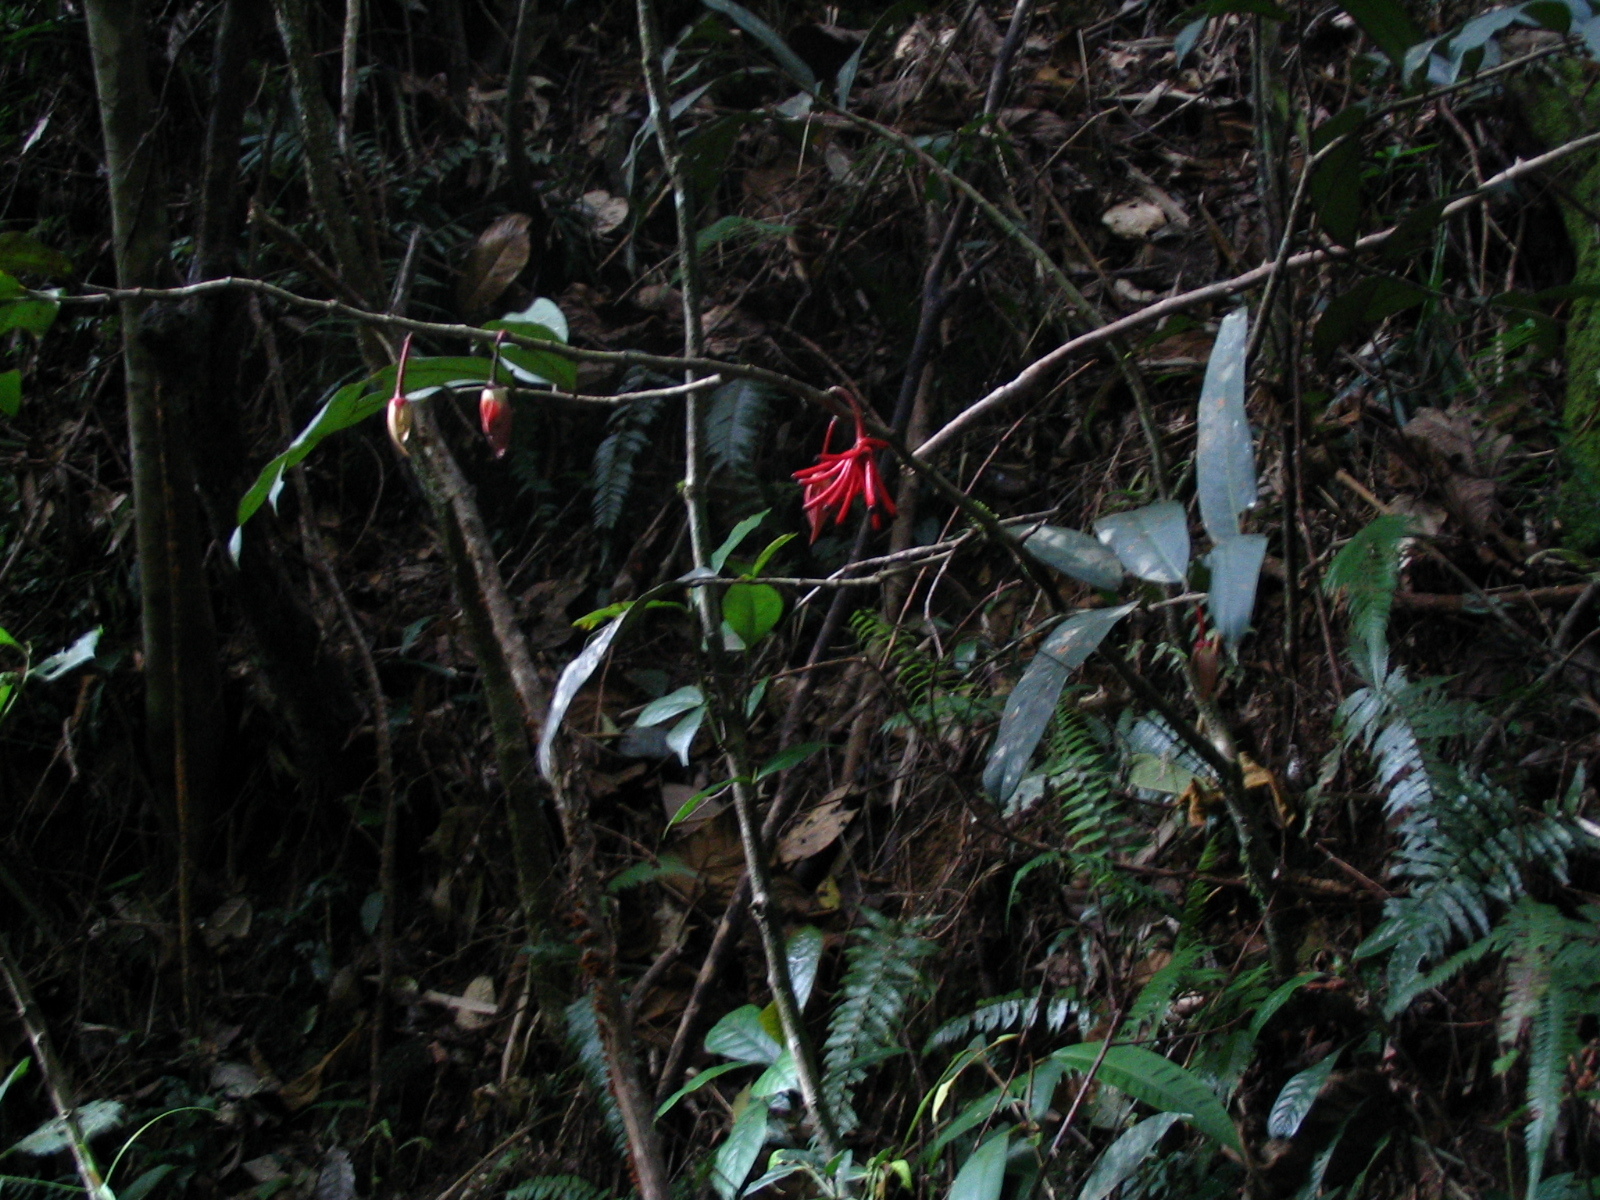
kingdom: Plantae
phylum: Tracheophyta
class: Magnoliopsida
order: Magnoliales
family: Annonaceae
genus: Goniothalamus
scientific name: Goniothalamus roseus
